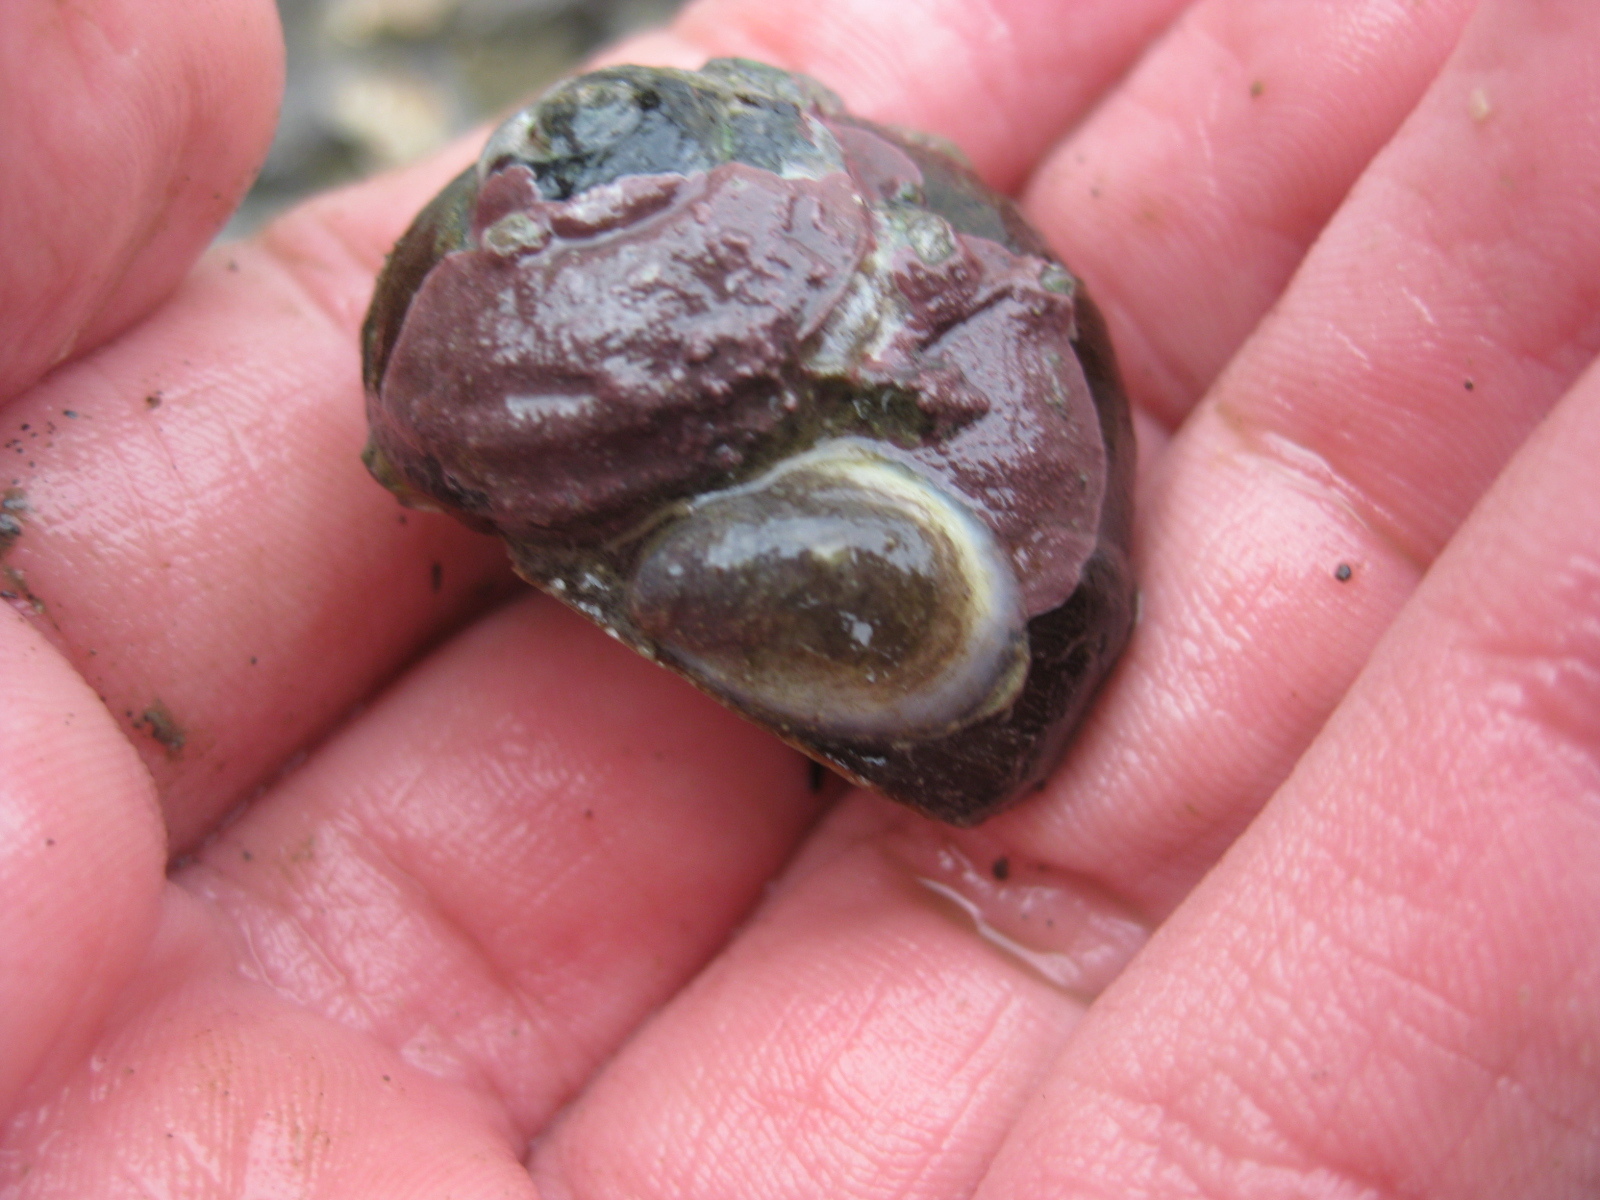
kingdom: Animalia
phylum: Mollusca
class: Gastropoda
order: Littorinimorpha
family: Calyptraeidae
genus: Maoricrypta
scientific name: Maoricrypta monoxyla
